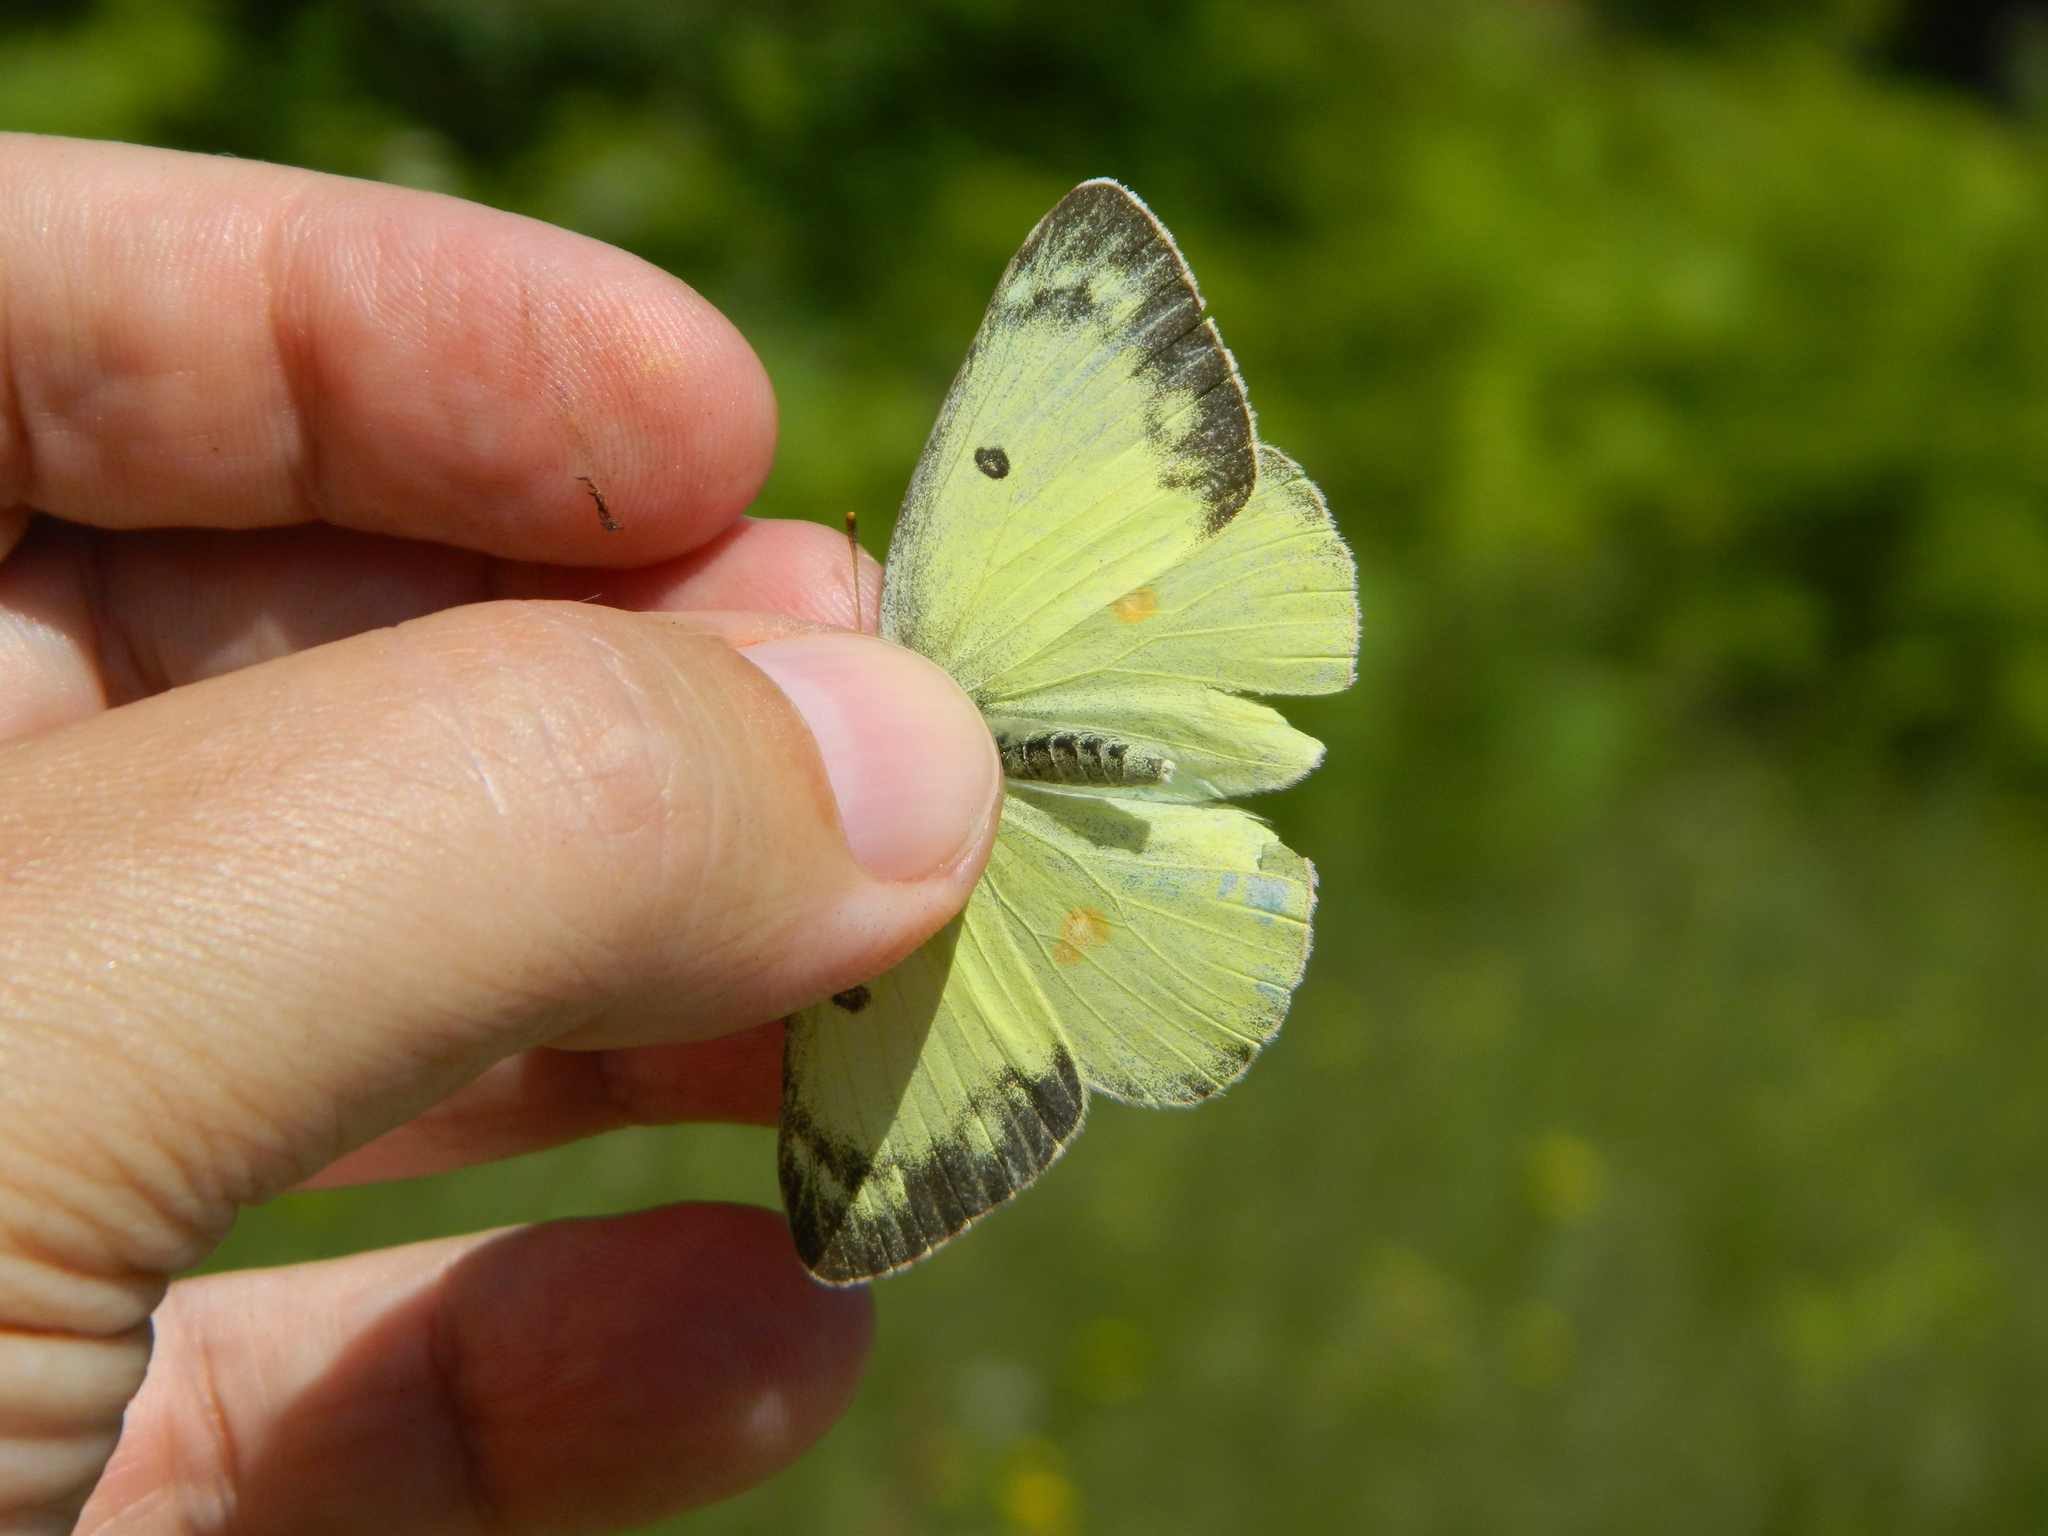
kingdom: Animalia
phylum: Arthropoda
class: Insecta
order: Lepidoptera
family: Pieridae
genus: Colias
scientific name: Colias philodice
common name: Clouded sulphur
